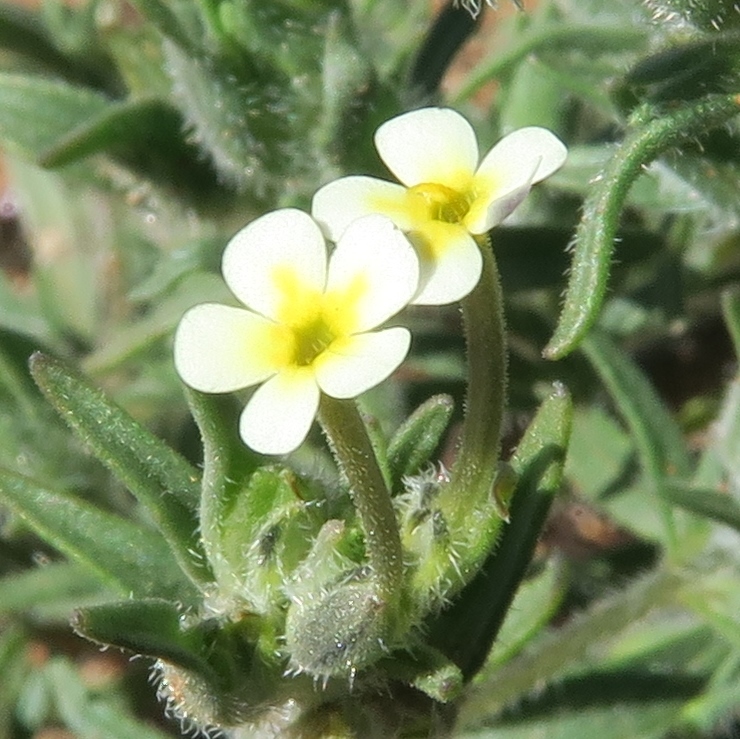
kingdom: Plantae
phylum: Tracheophyta
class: Magnoliopsida
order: Lamiales
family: Scrophulariaceae
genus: Zaluzianskya
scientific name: Zaluzianskya benthamiana
